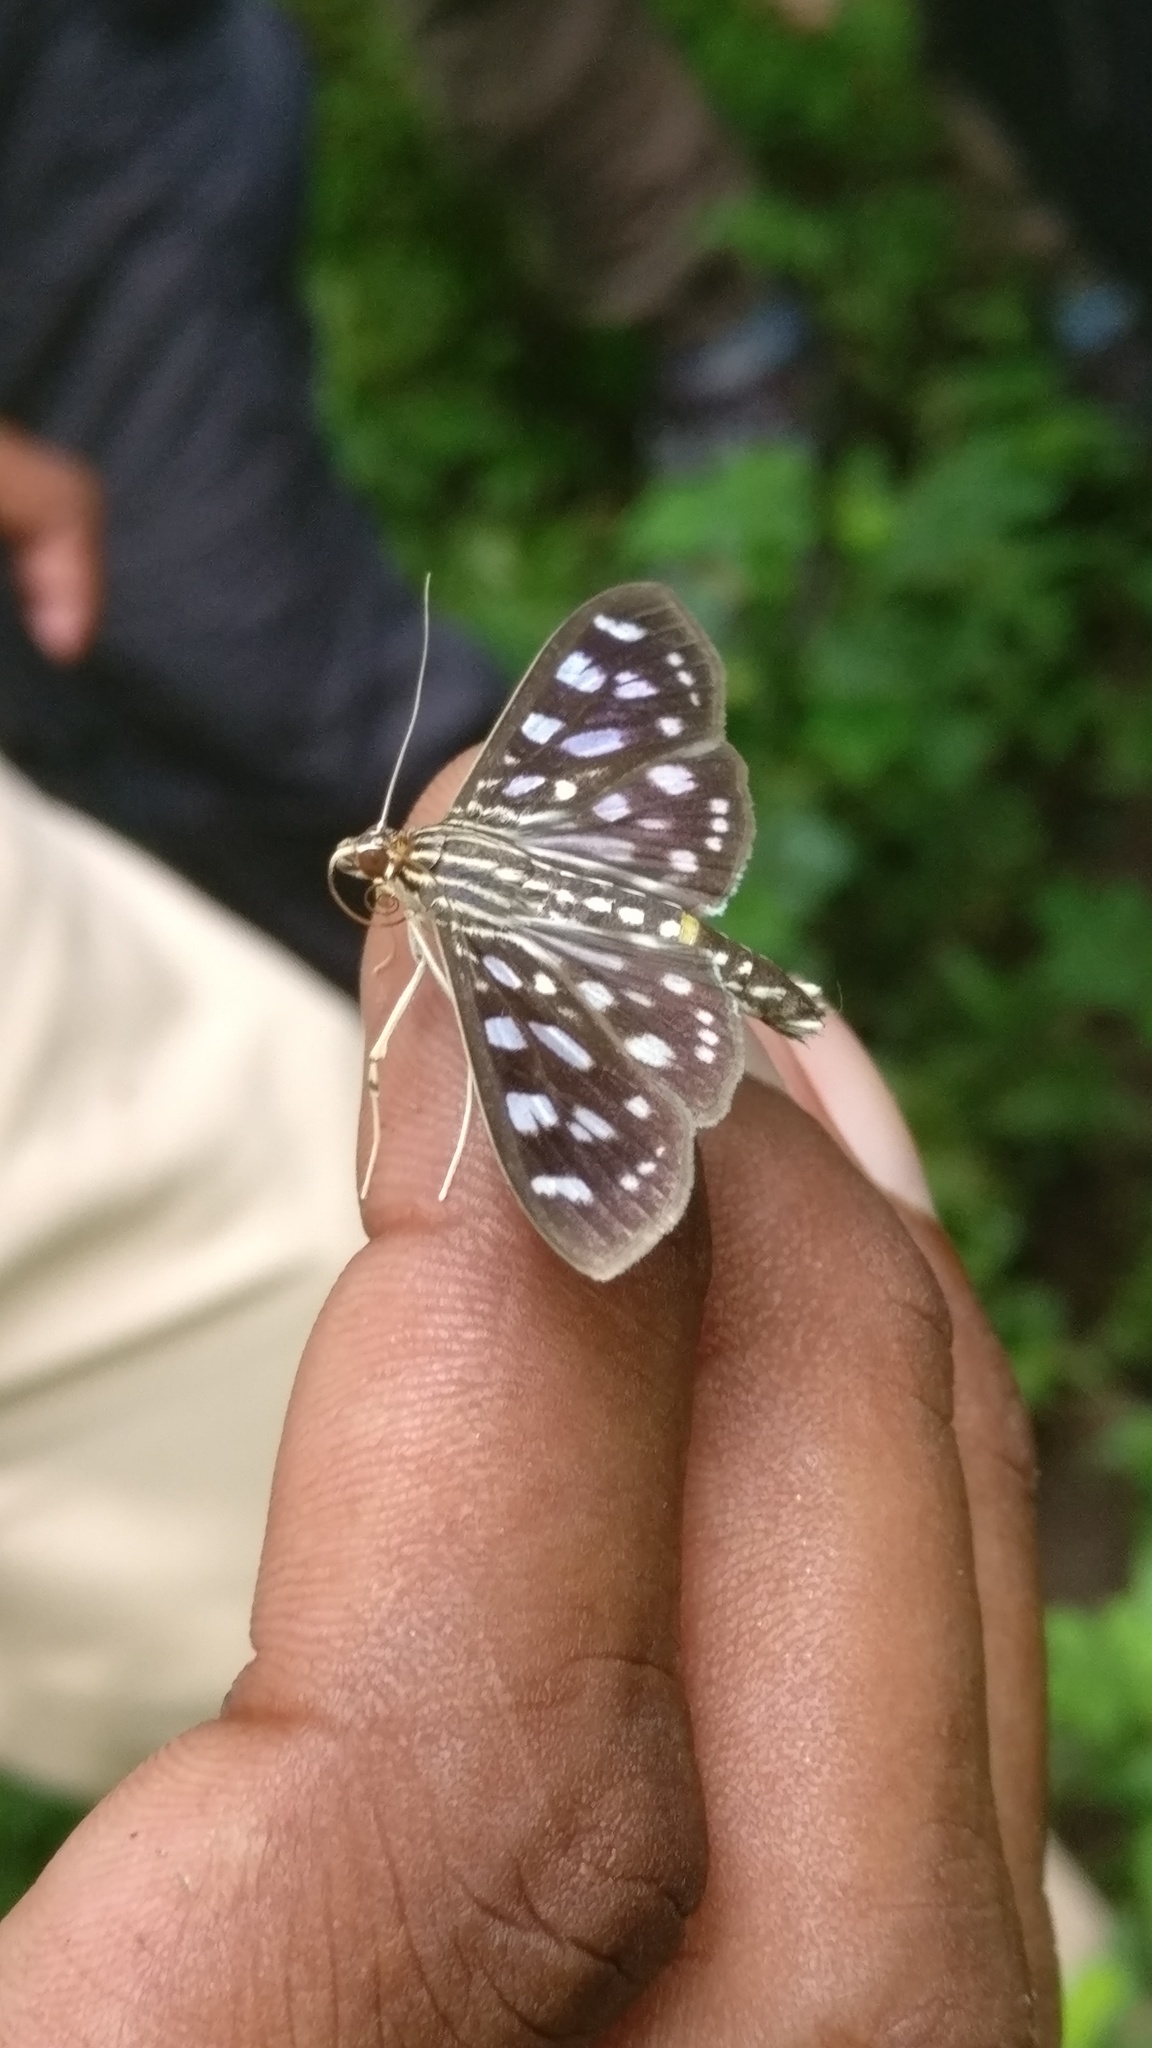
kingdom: Animalia
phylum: Arthropoda
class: Insecta
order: Lepidoptera
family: Crambidae
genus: Pygospila
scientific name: Pygospila tyres
